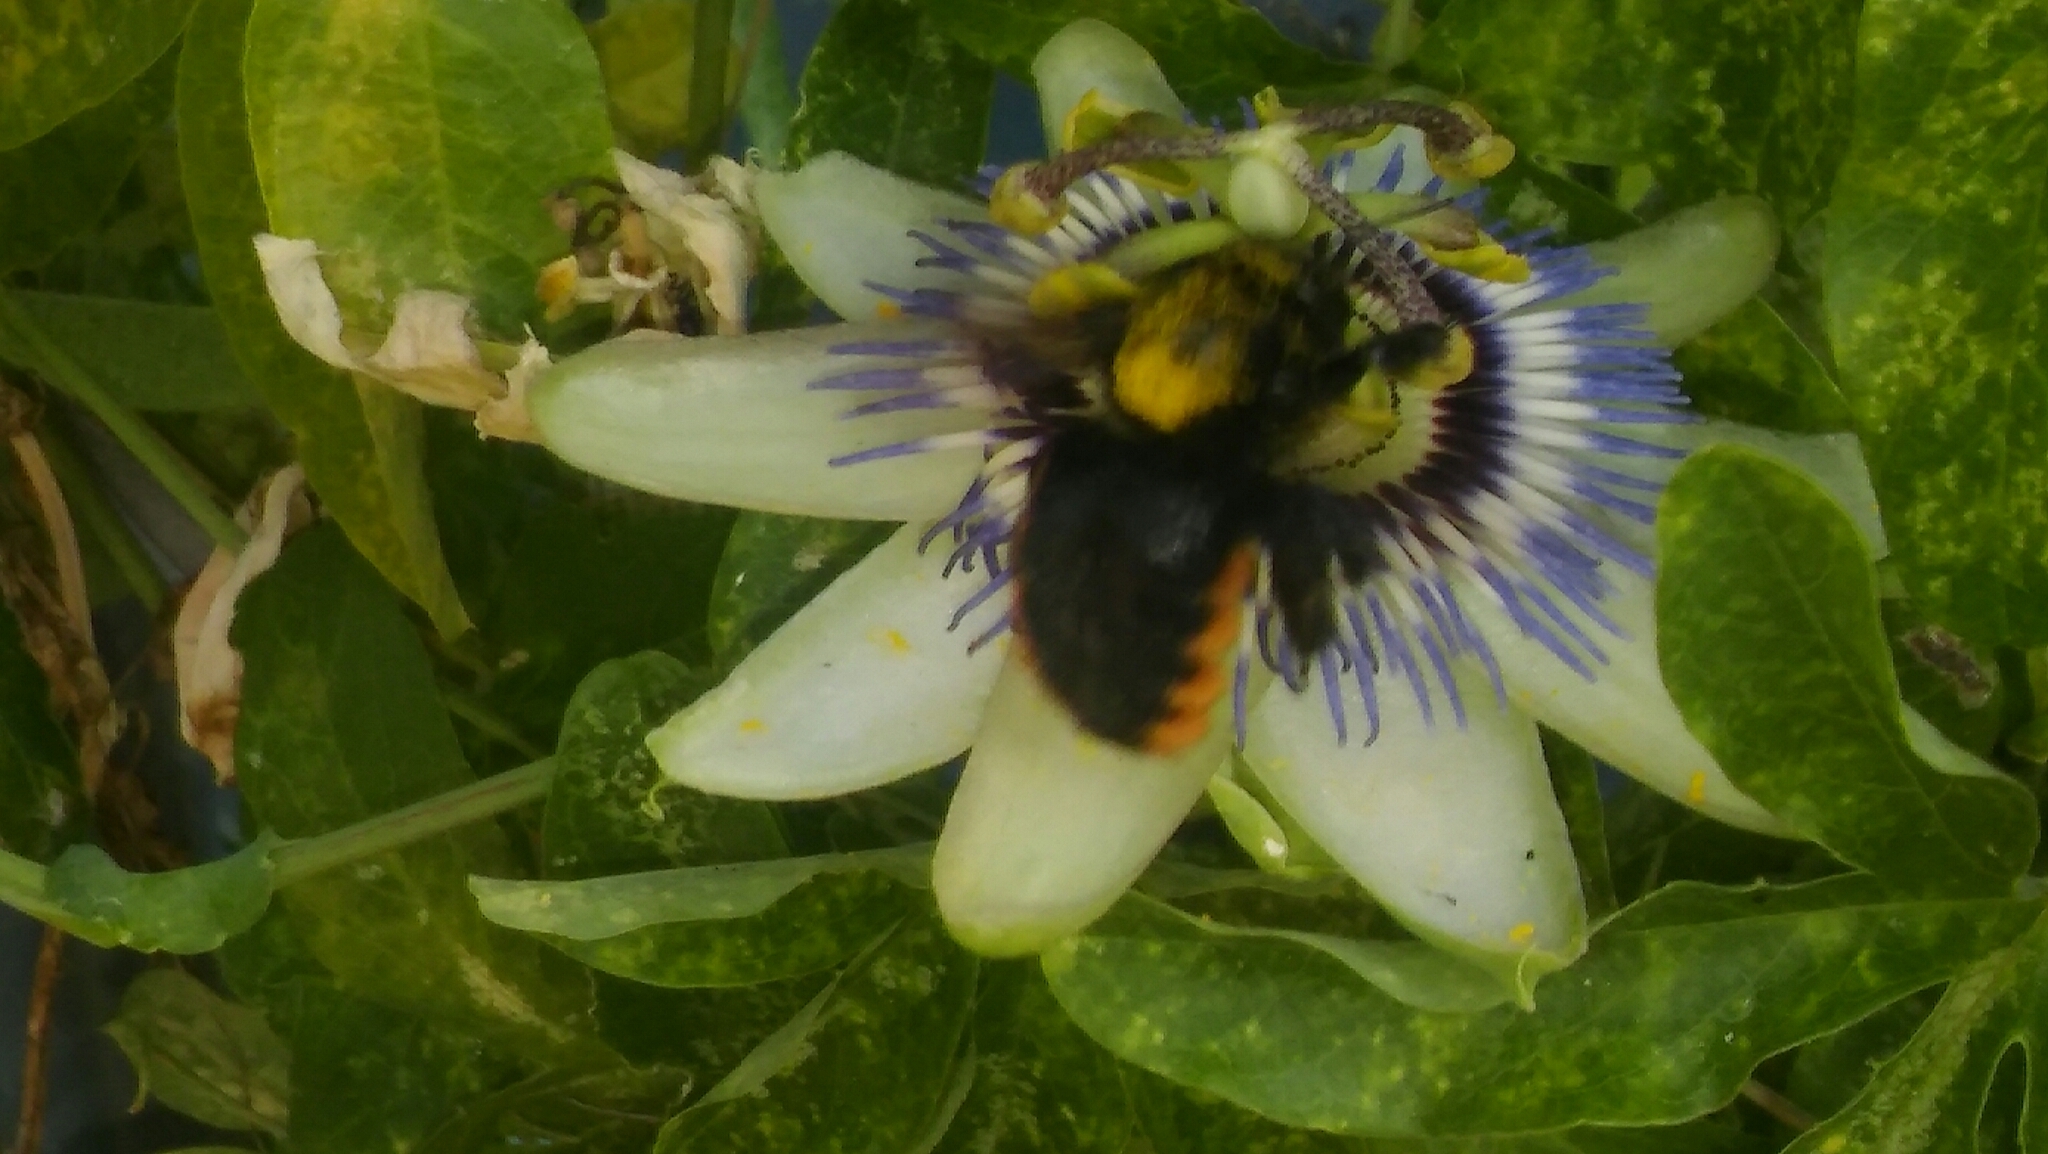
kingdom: Animalia
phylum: Arthropoda
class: Insecta
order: Hymenoptera
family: Apidae
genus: Xylocopa
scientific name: Xylocopa augusti
